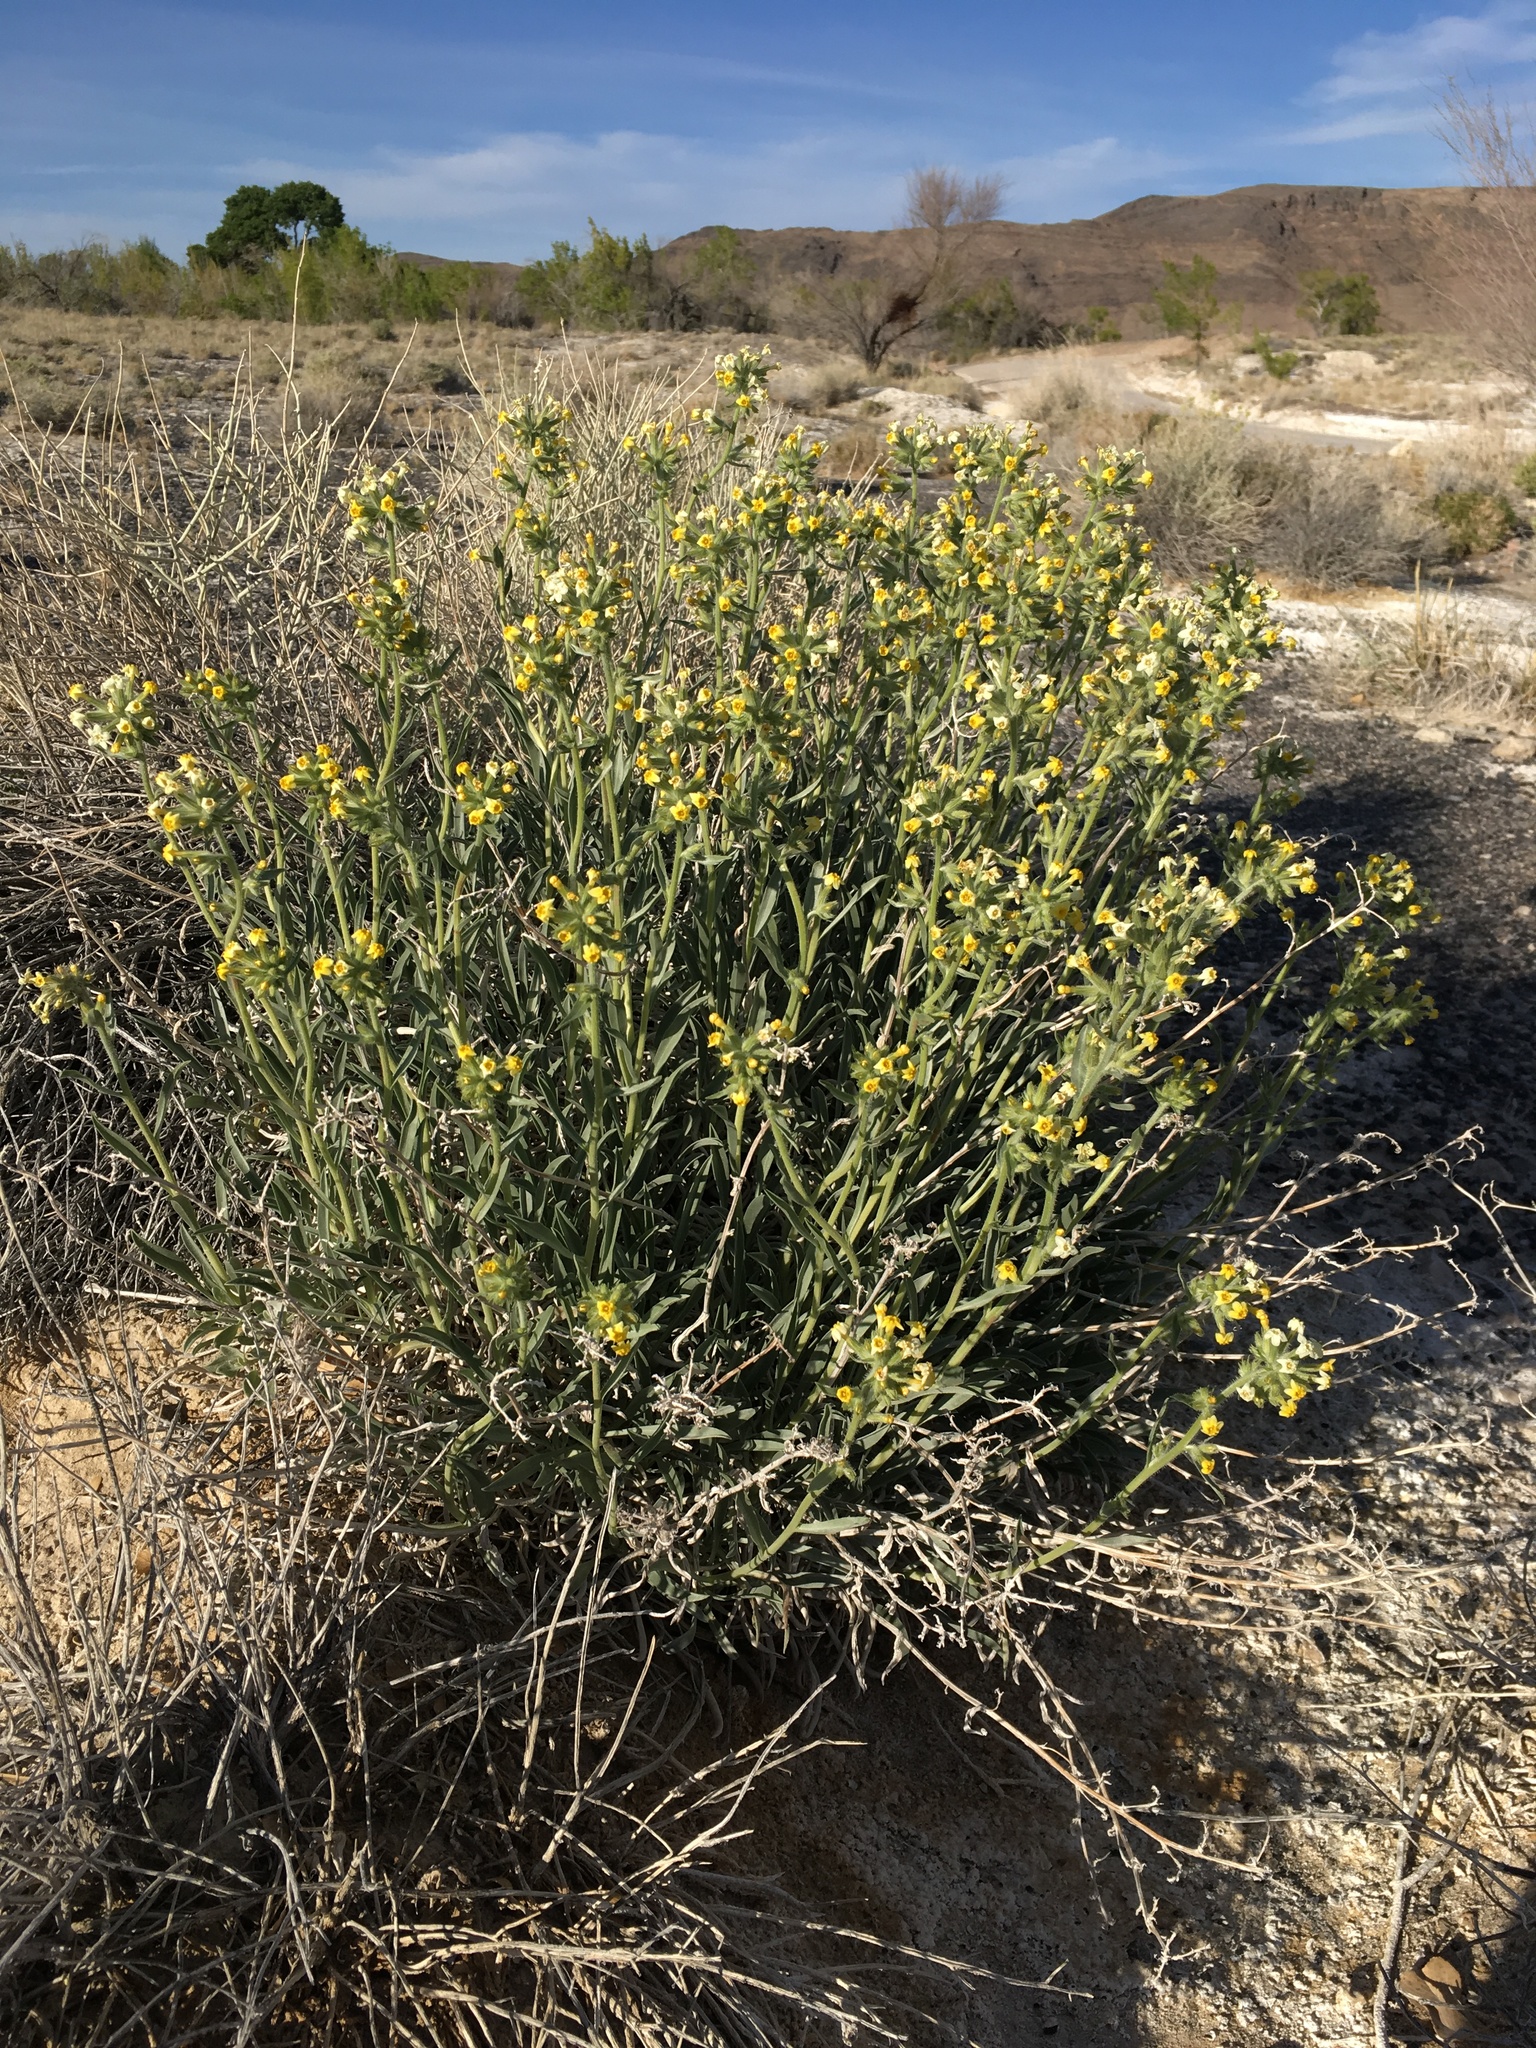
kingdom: Plantae
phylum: Tracheophyta
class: Magnoliopsida
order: Boraginales
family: Boraginaceae
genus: Oreocarya
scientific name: Oreocarya confertiflora
